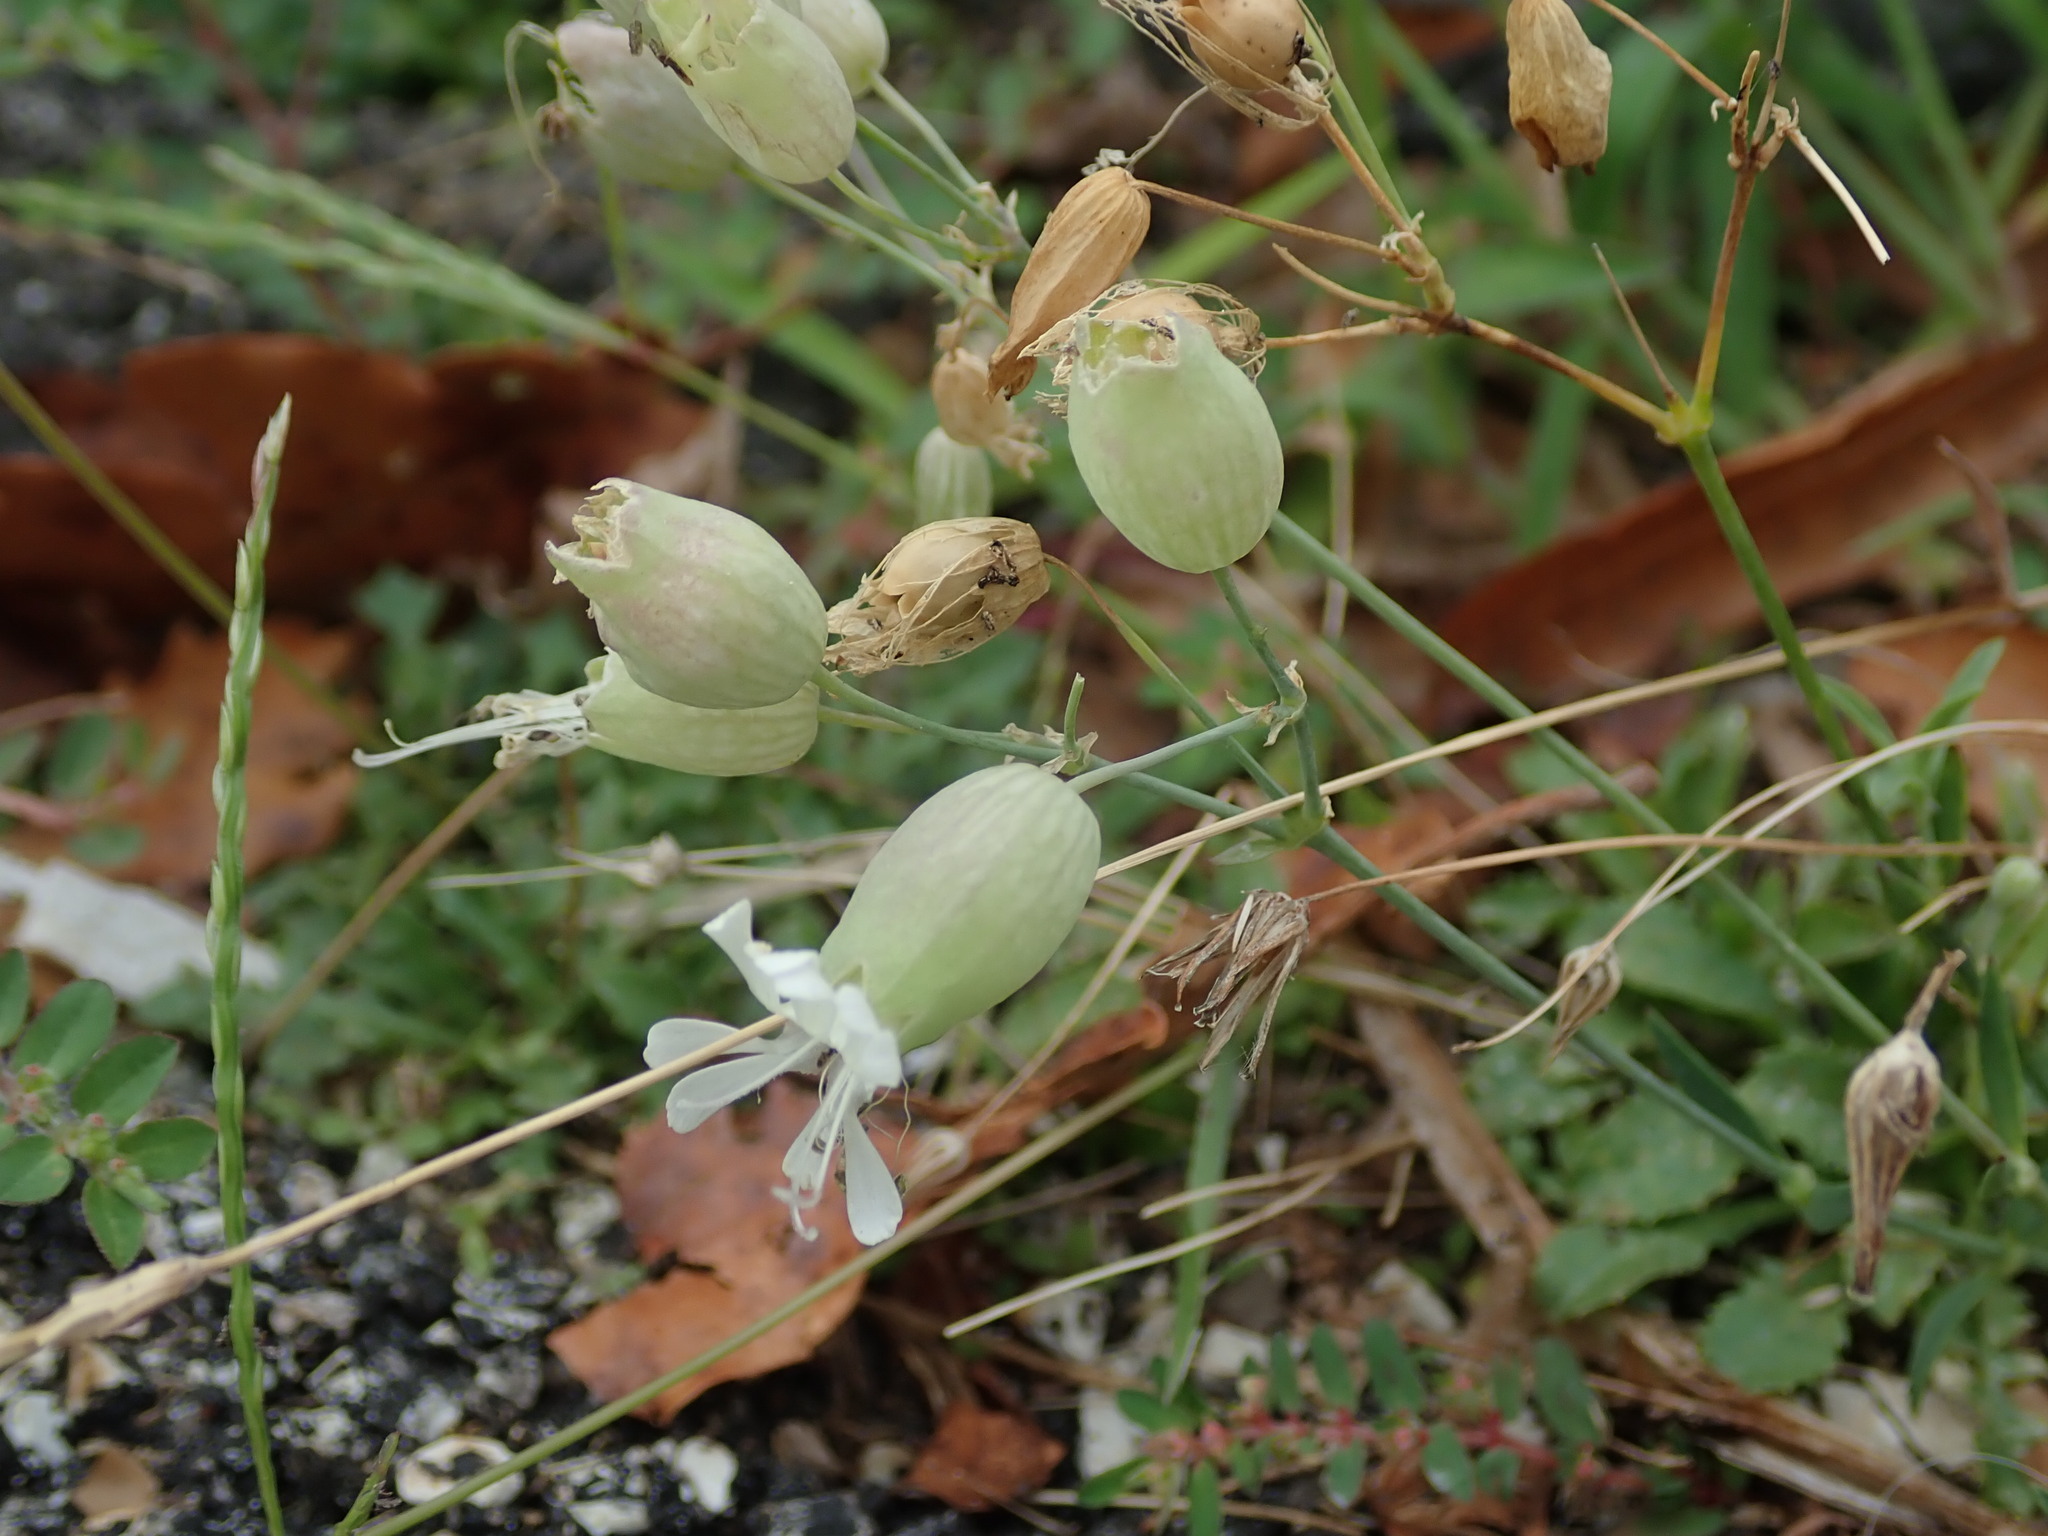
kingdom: Plantae
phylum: Tracheophyta
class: Magnoliopsida
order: Caryophyllales
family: Caryophyllaceae
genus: Silene
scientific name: Silene vulgaris
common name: Bladder campion
